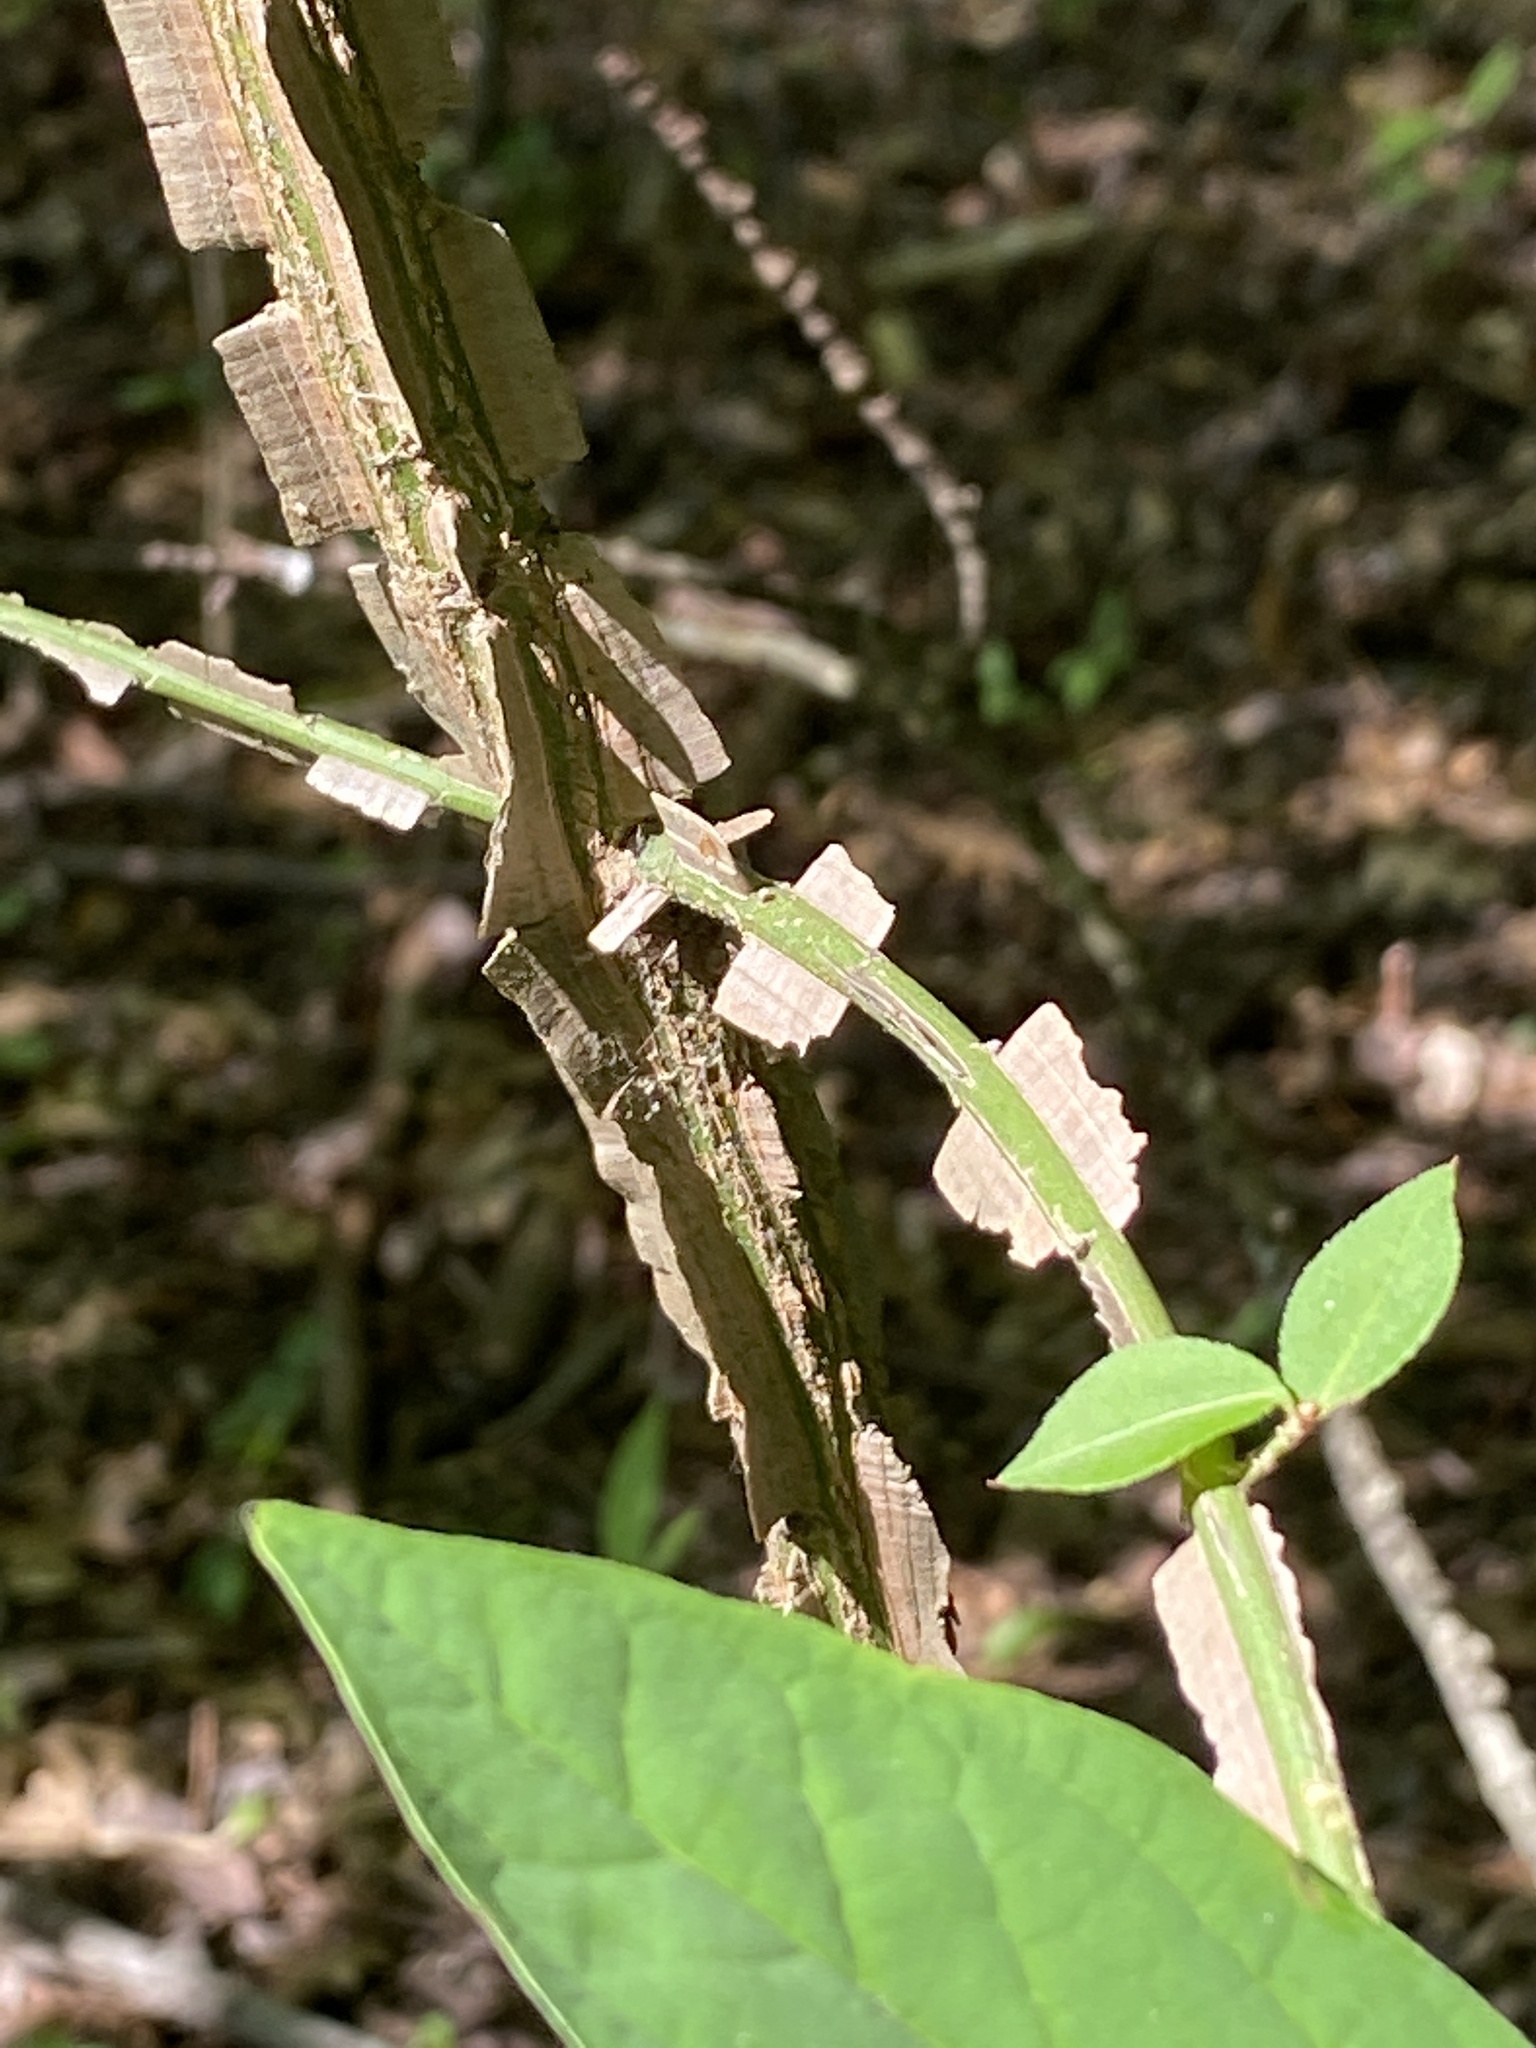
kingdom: Plantae
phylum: Tracheophyta
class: Magnoliopsida
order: Celastrales
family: Celastraceae
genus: Euonymus
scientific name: Euonymus alatus
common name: Winged euonymus
